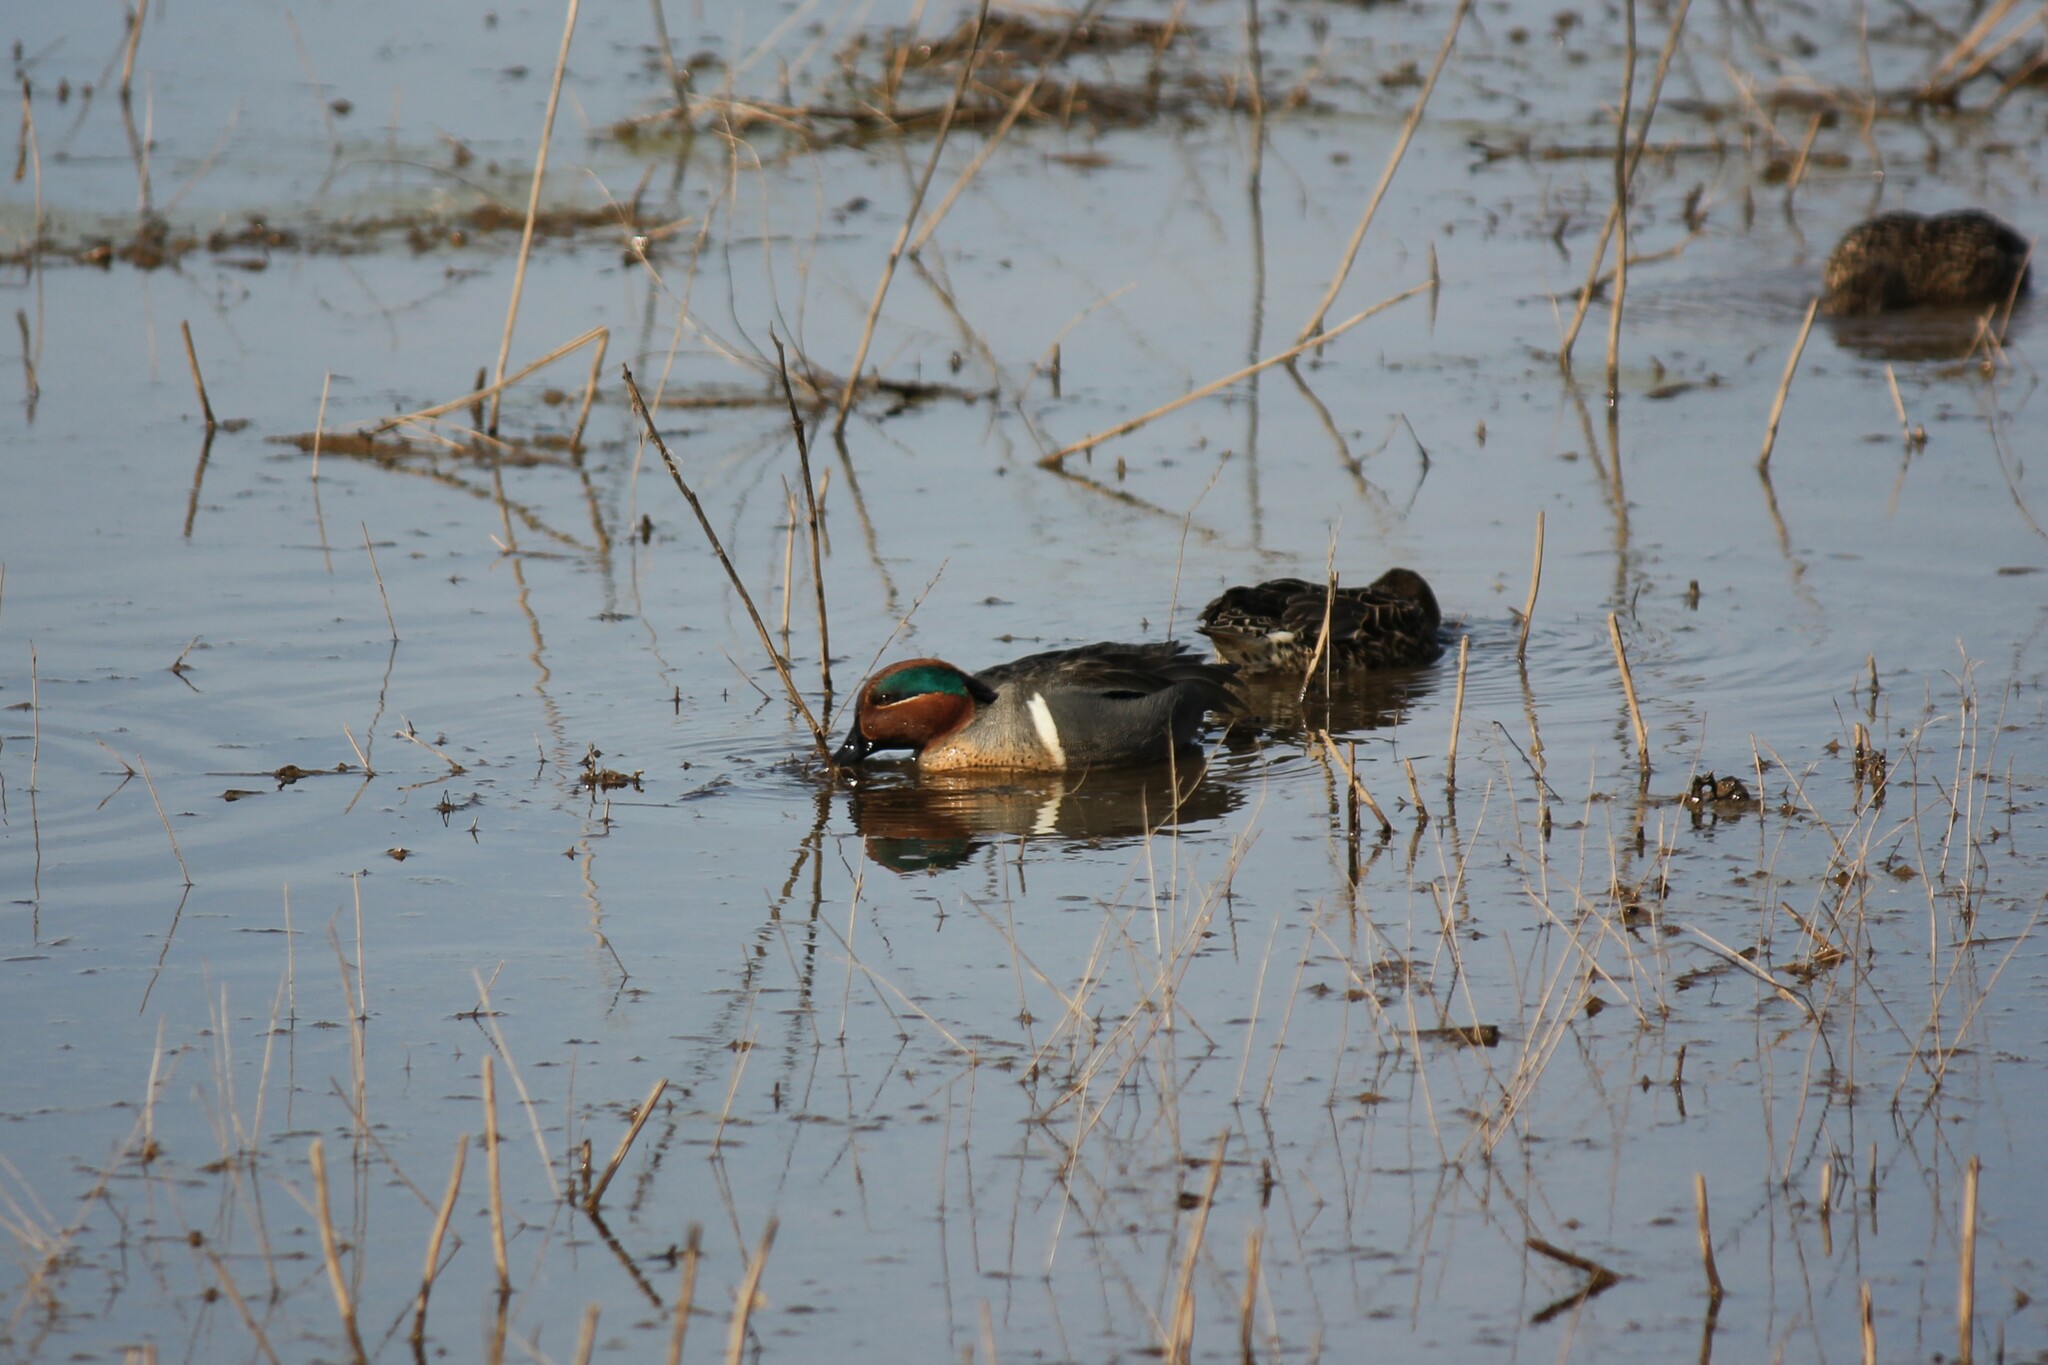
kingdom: Animalia
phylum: Chordata
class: Aves
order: Anseriformes
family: Anatidae
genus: Anas
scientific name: Anas crecca
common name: Eurasian teal
